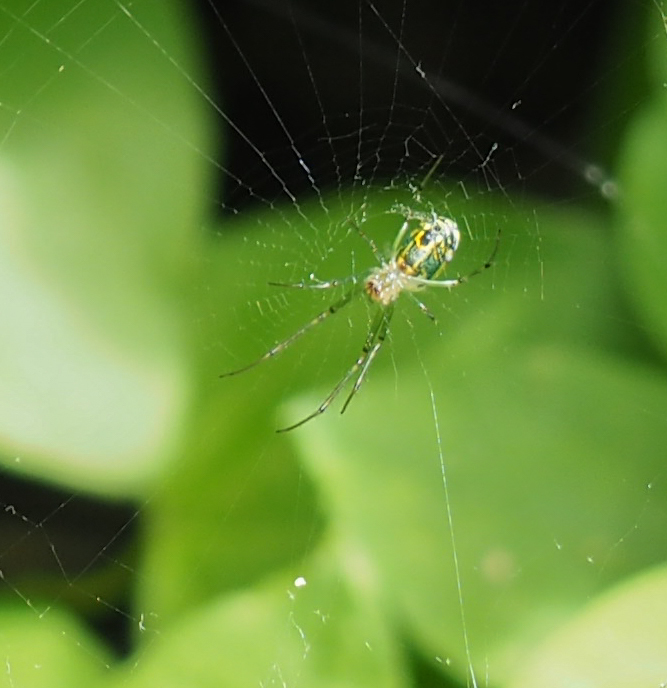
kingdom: Animalia
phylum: Arthropoda
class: Arachnida
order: Araneae
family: Tetragnathidae
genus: Leucauge
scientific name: Leucauge venusta
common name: Longjawed orb weavers
